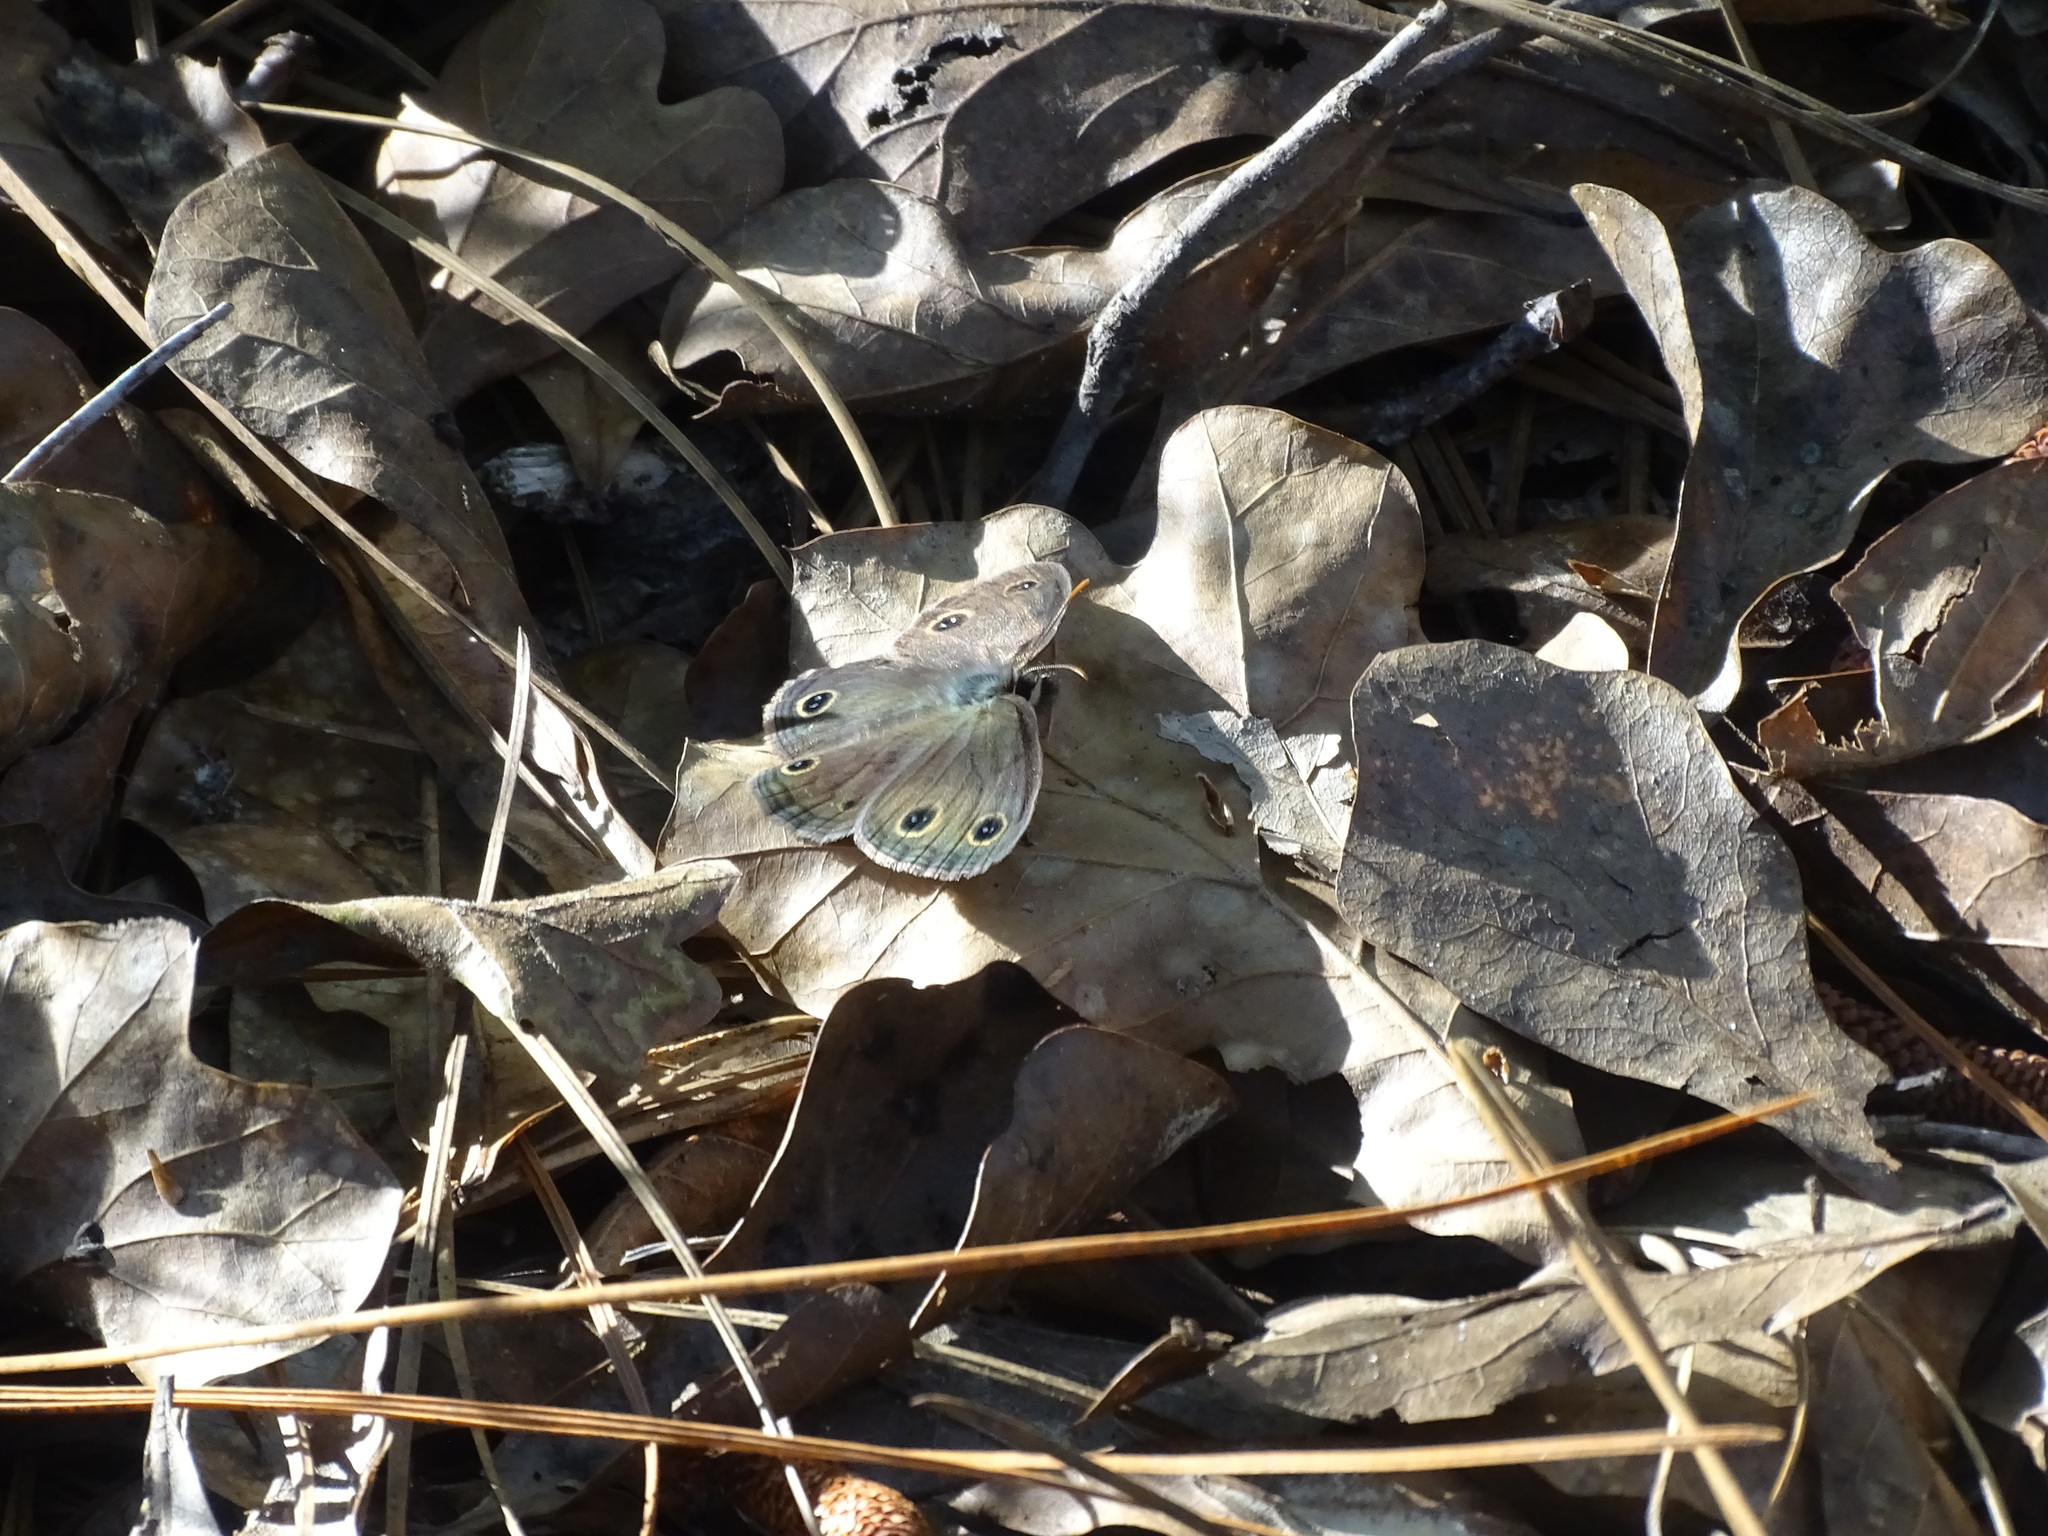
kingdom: Animalia
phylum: Arthropoda
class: Insecta
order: Lepidoptera
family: Nymphalidae
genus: Euptychia
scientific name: Euptychia cymela
